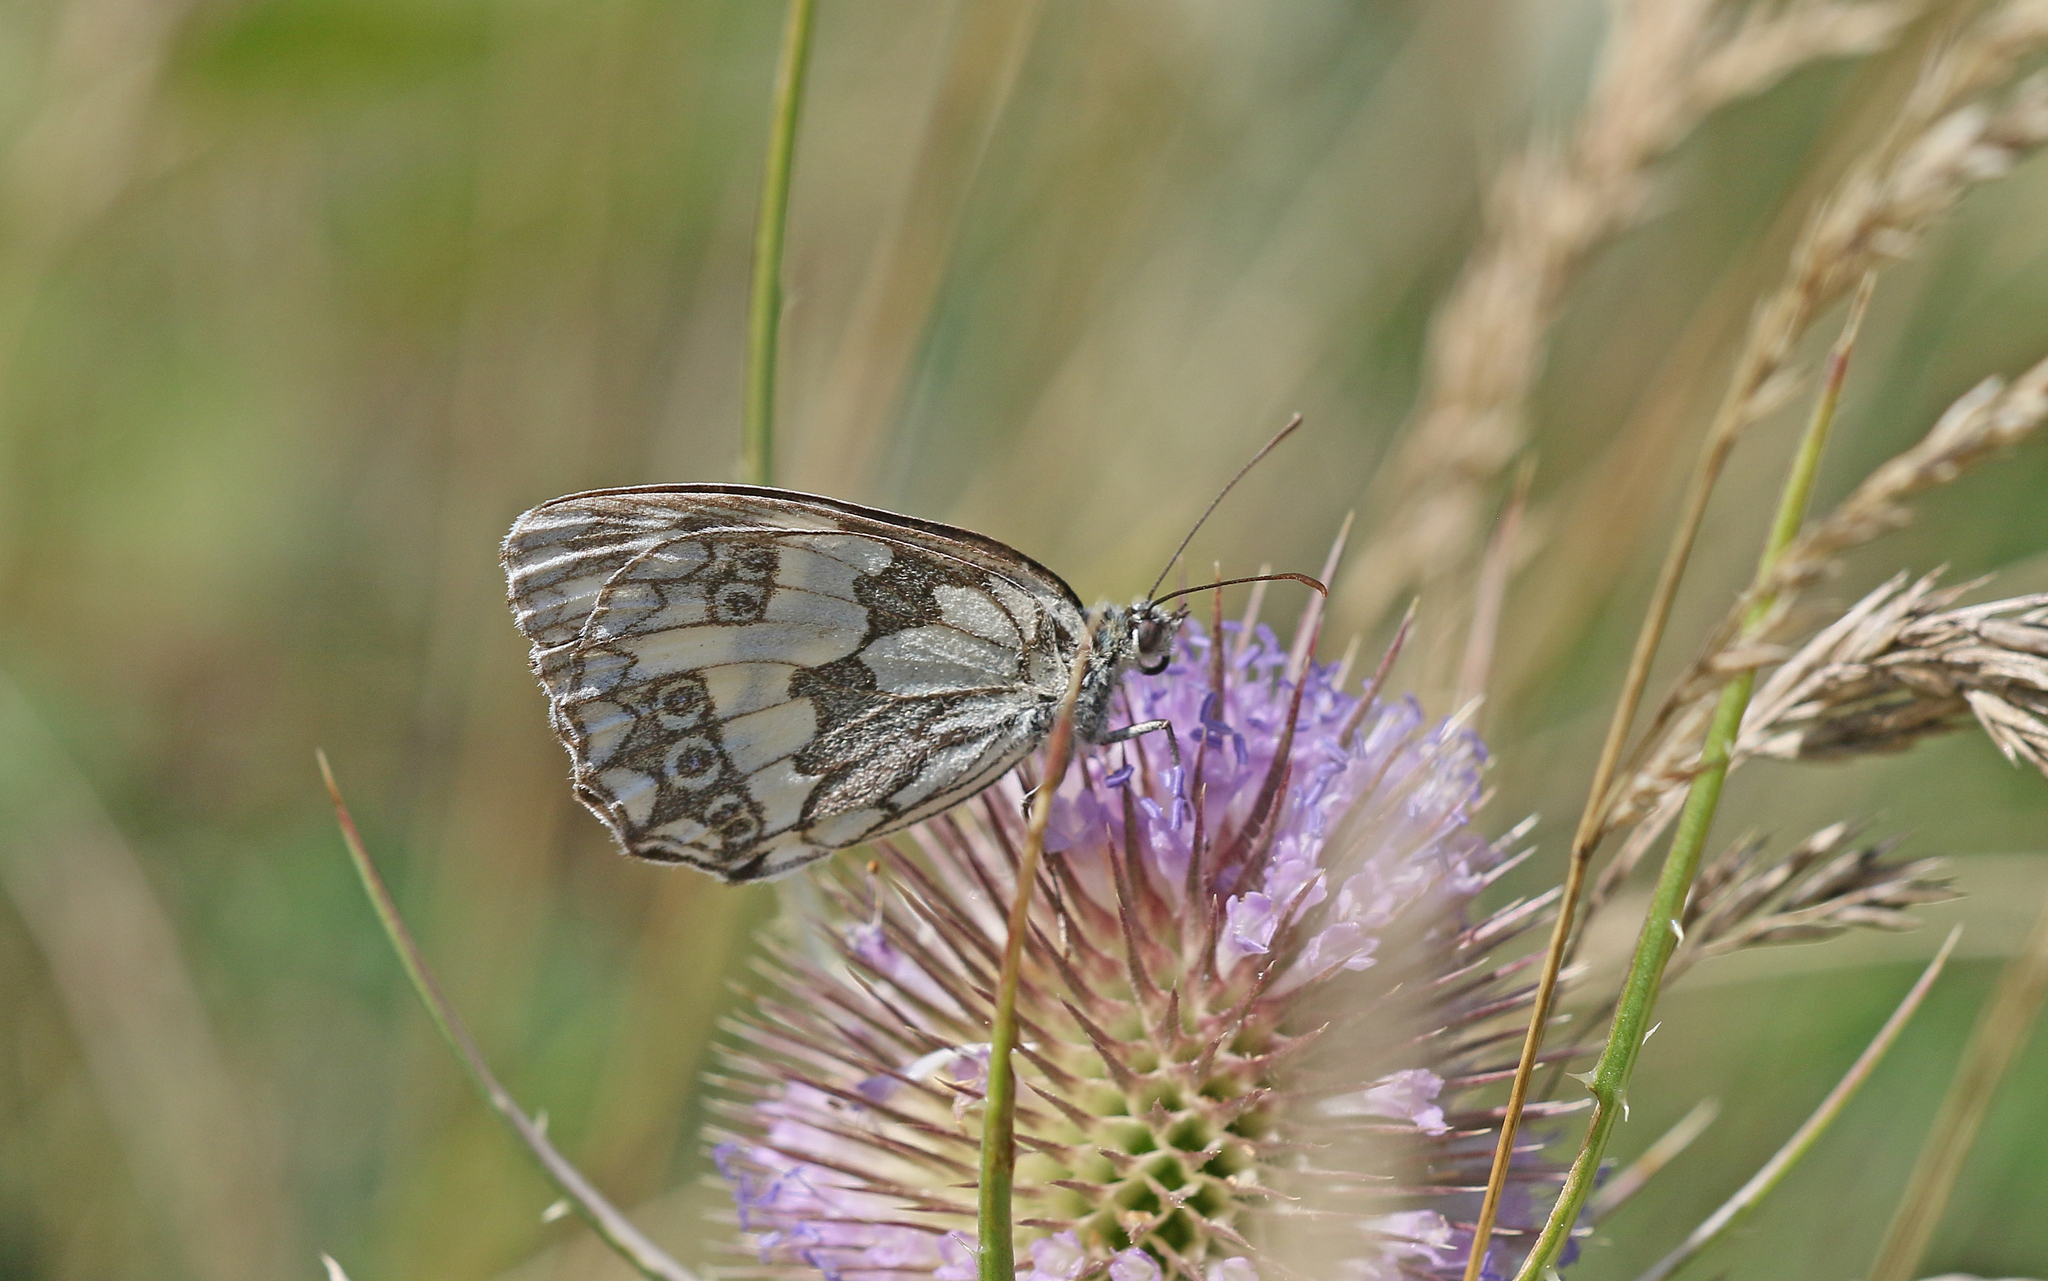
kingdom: Animalia
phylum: Arthropoda
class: Insecta
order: Lepidoptera
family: Nymphalidae
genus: Melanargia
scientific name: Melanargia galathea
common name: Marbled white
